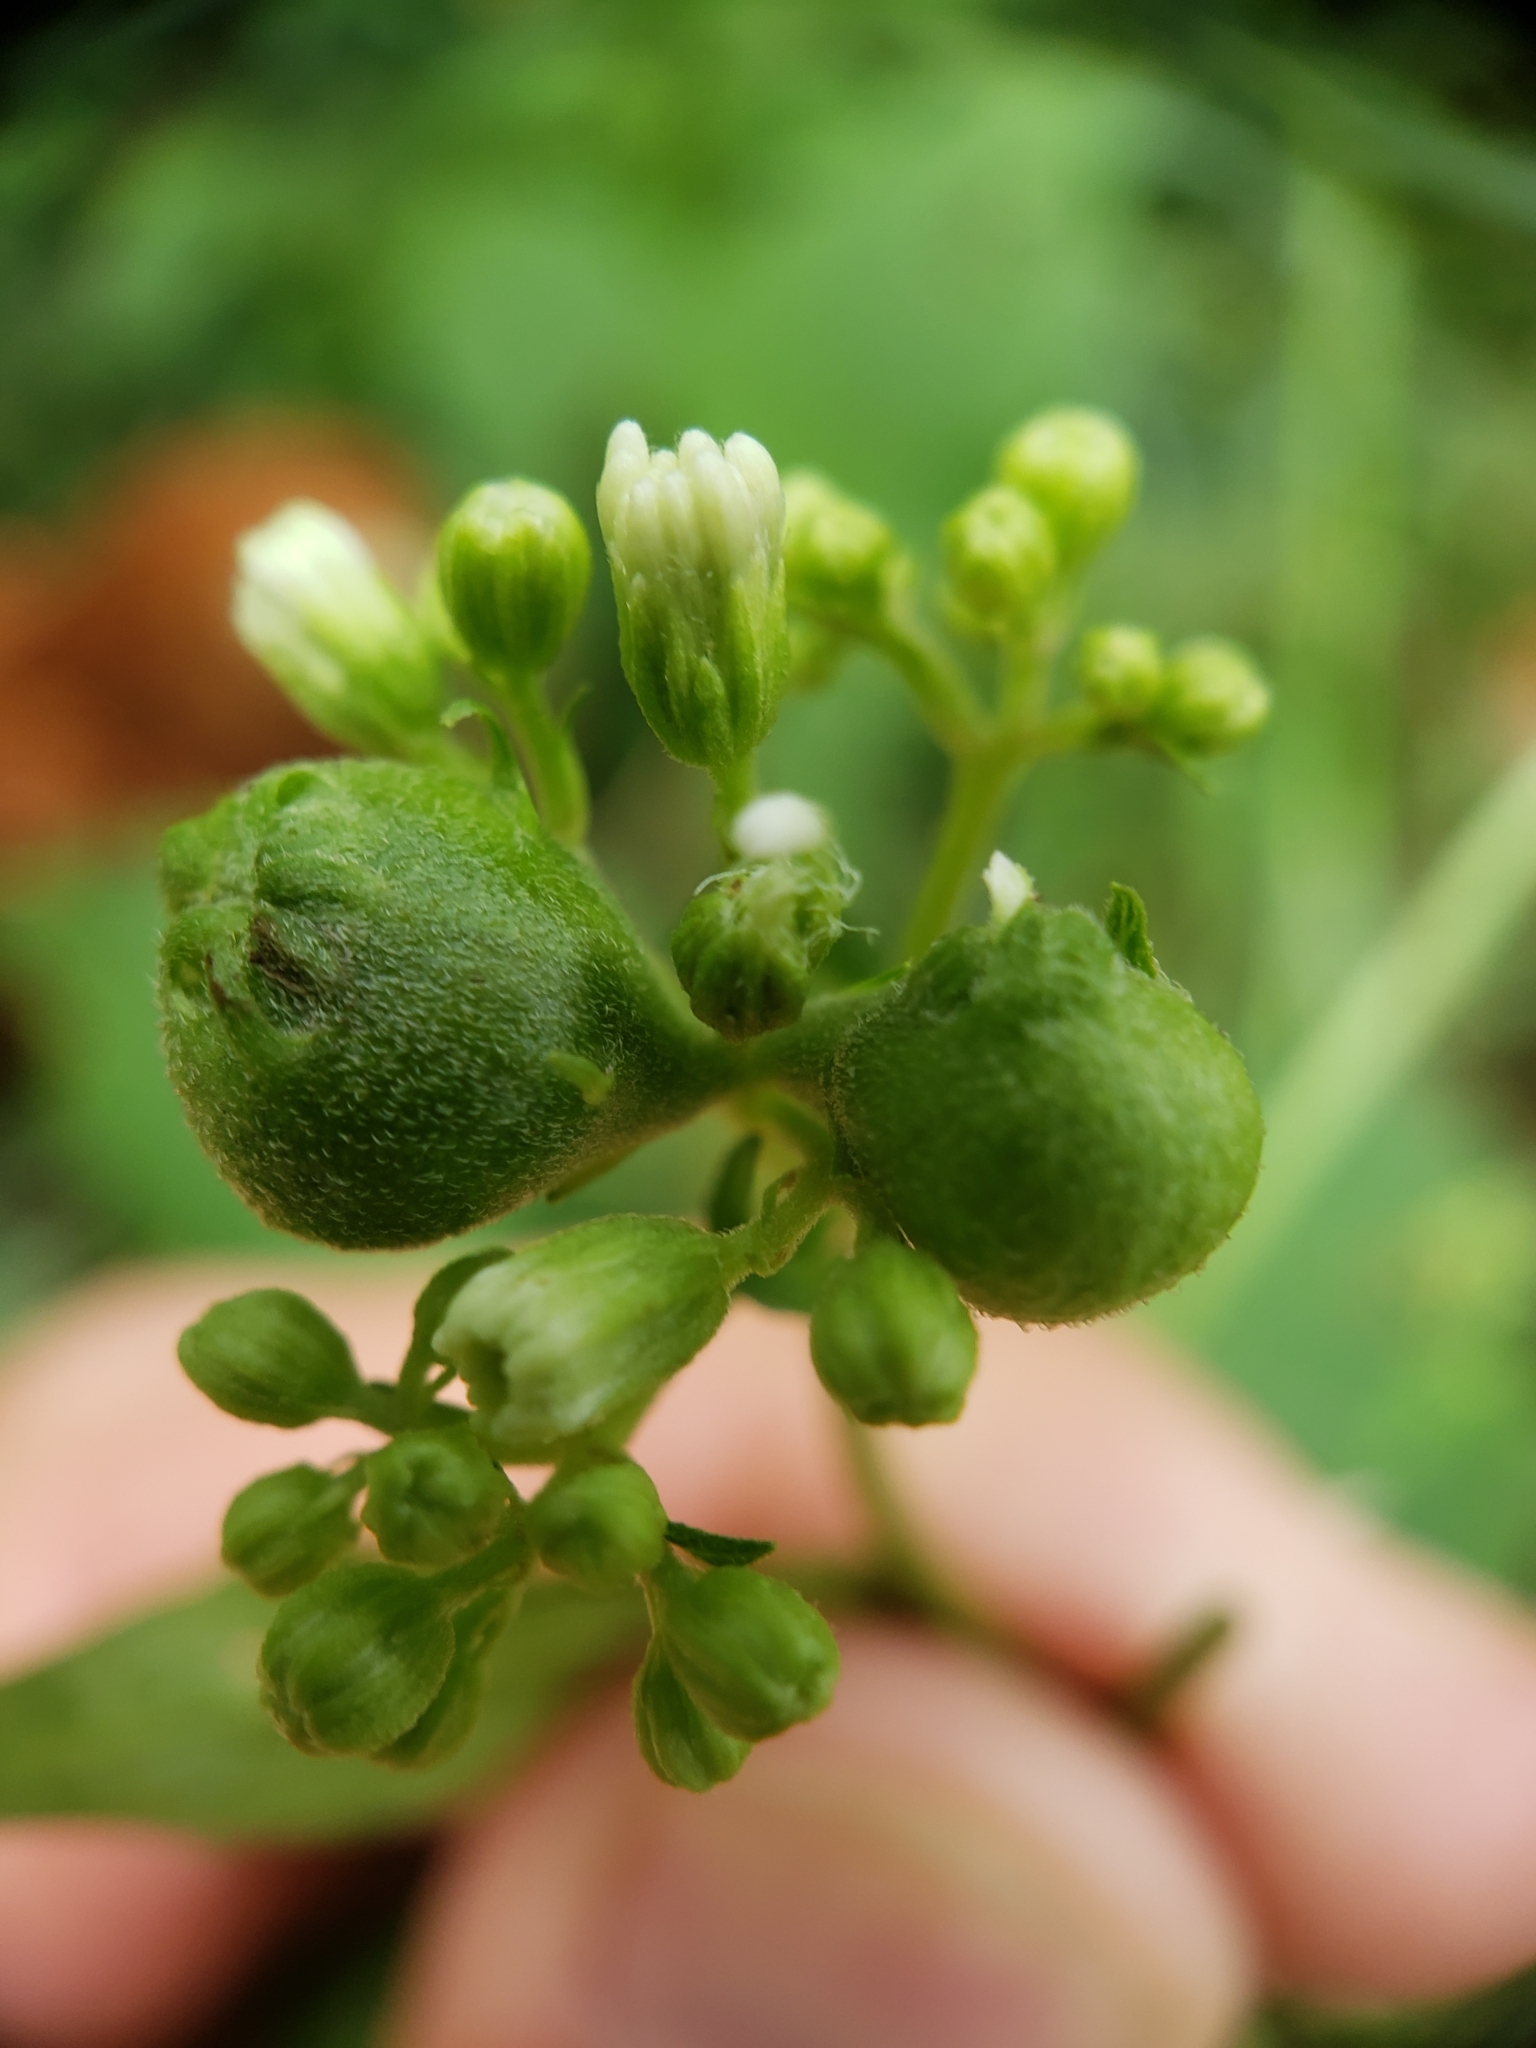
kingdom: Animalia
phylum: Arthropoda
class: Insecta
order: Diptera
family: Cecidomyiidae
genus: Schizomyia
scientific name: Schizomyia eupatoriflorae
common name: Boneset flower gall midge
